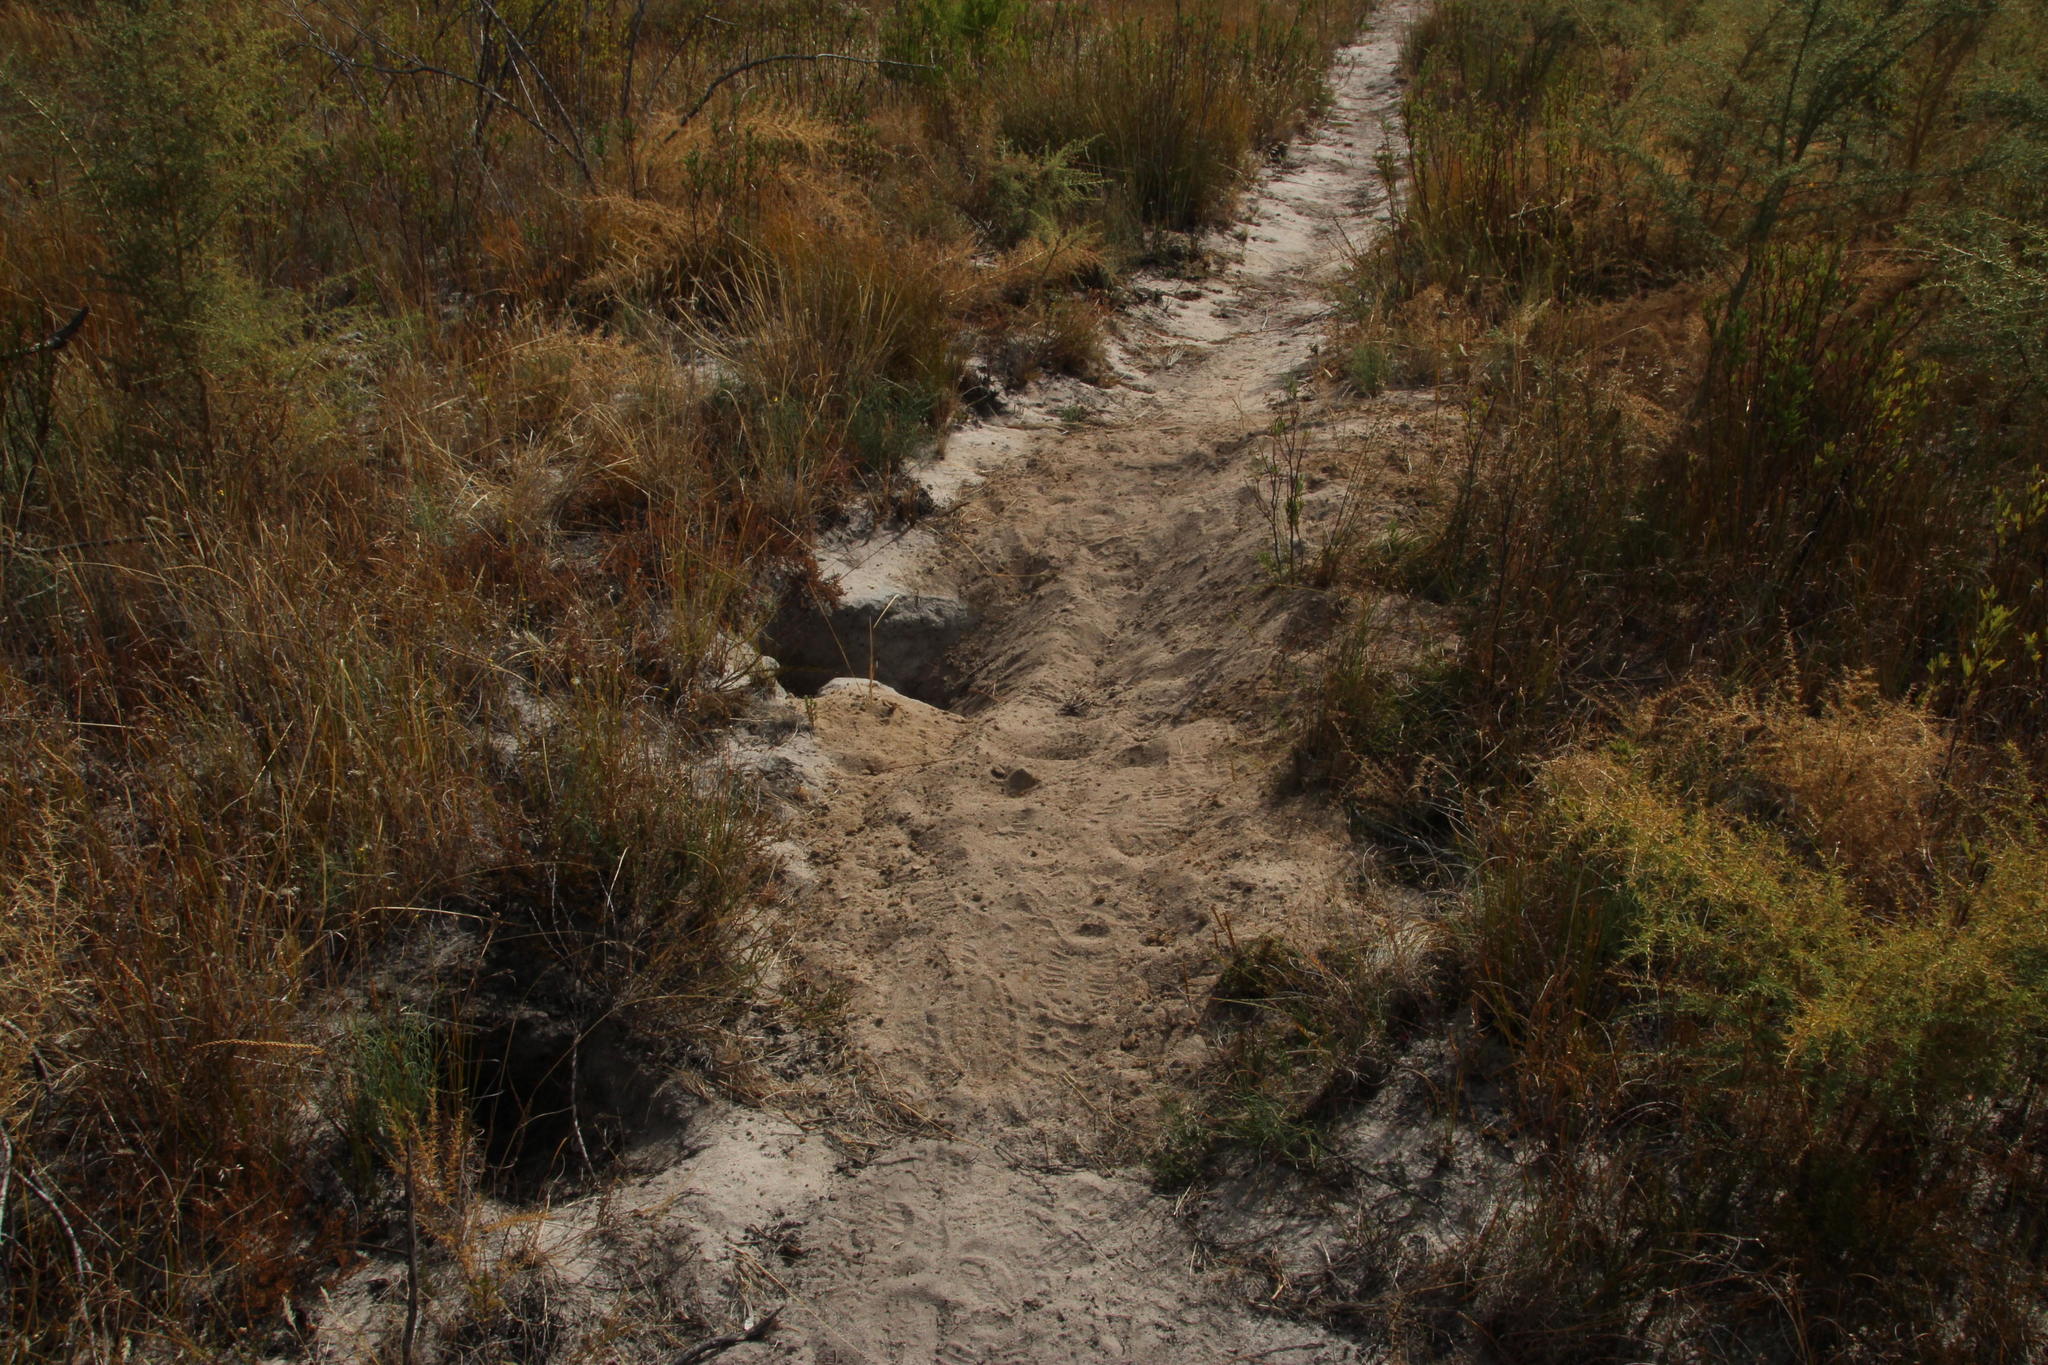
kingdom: Animalia
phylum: Chordata
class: Mammalia
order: Tubulidentata
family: Orycteropodidae
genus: Orycteropus
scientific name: Orycteropus afer
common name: Aardvark
